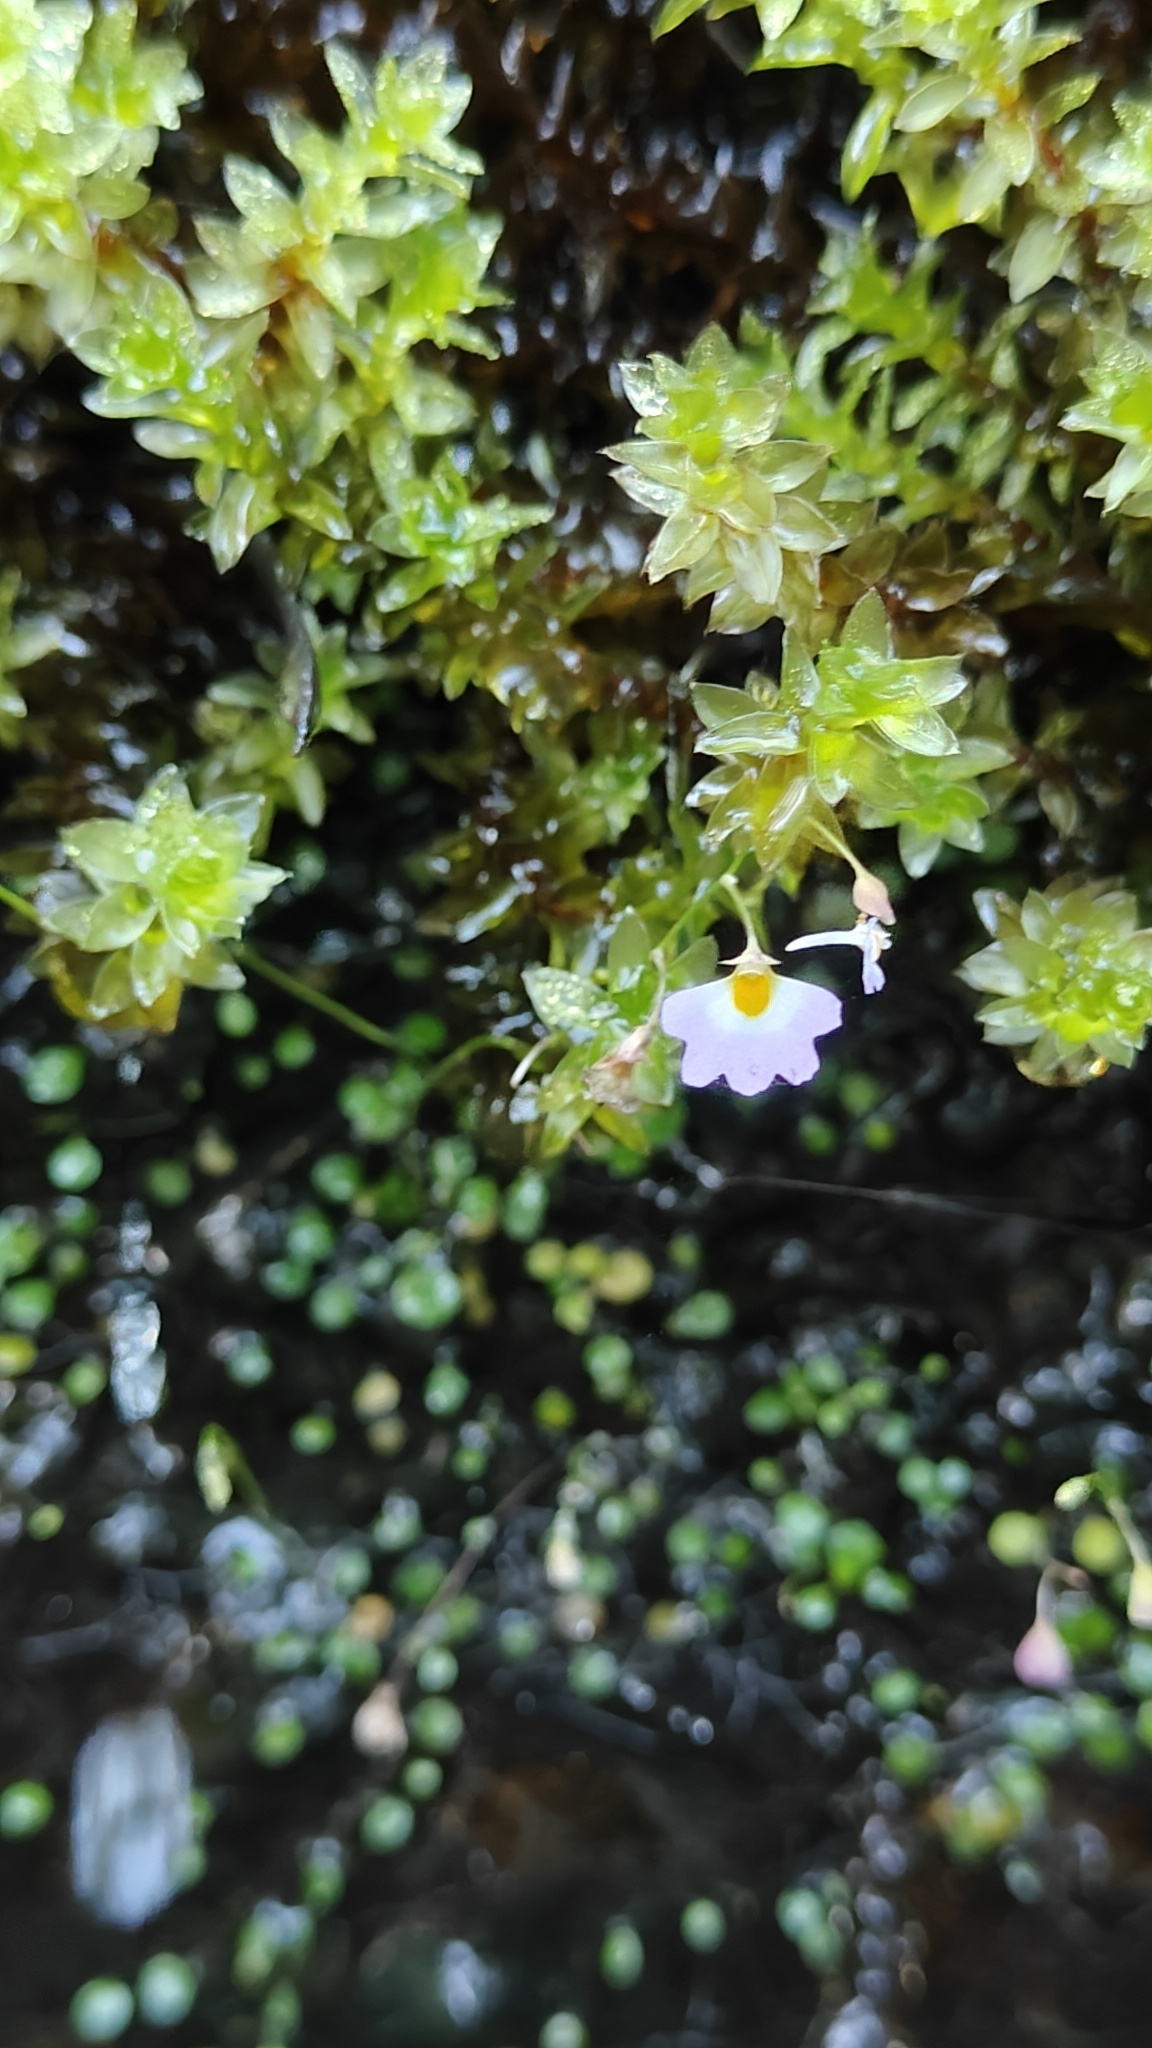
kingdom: Plantae
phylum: Tracheophyta
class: Magnoliopsida
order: Lamiales
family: Lentibulariaceae
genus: Utricularia
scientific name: Utricularia striatula
